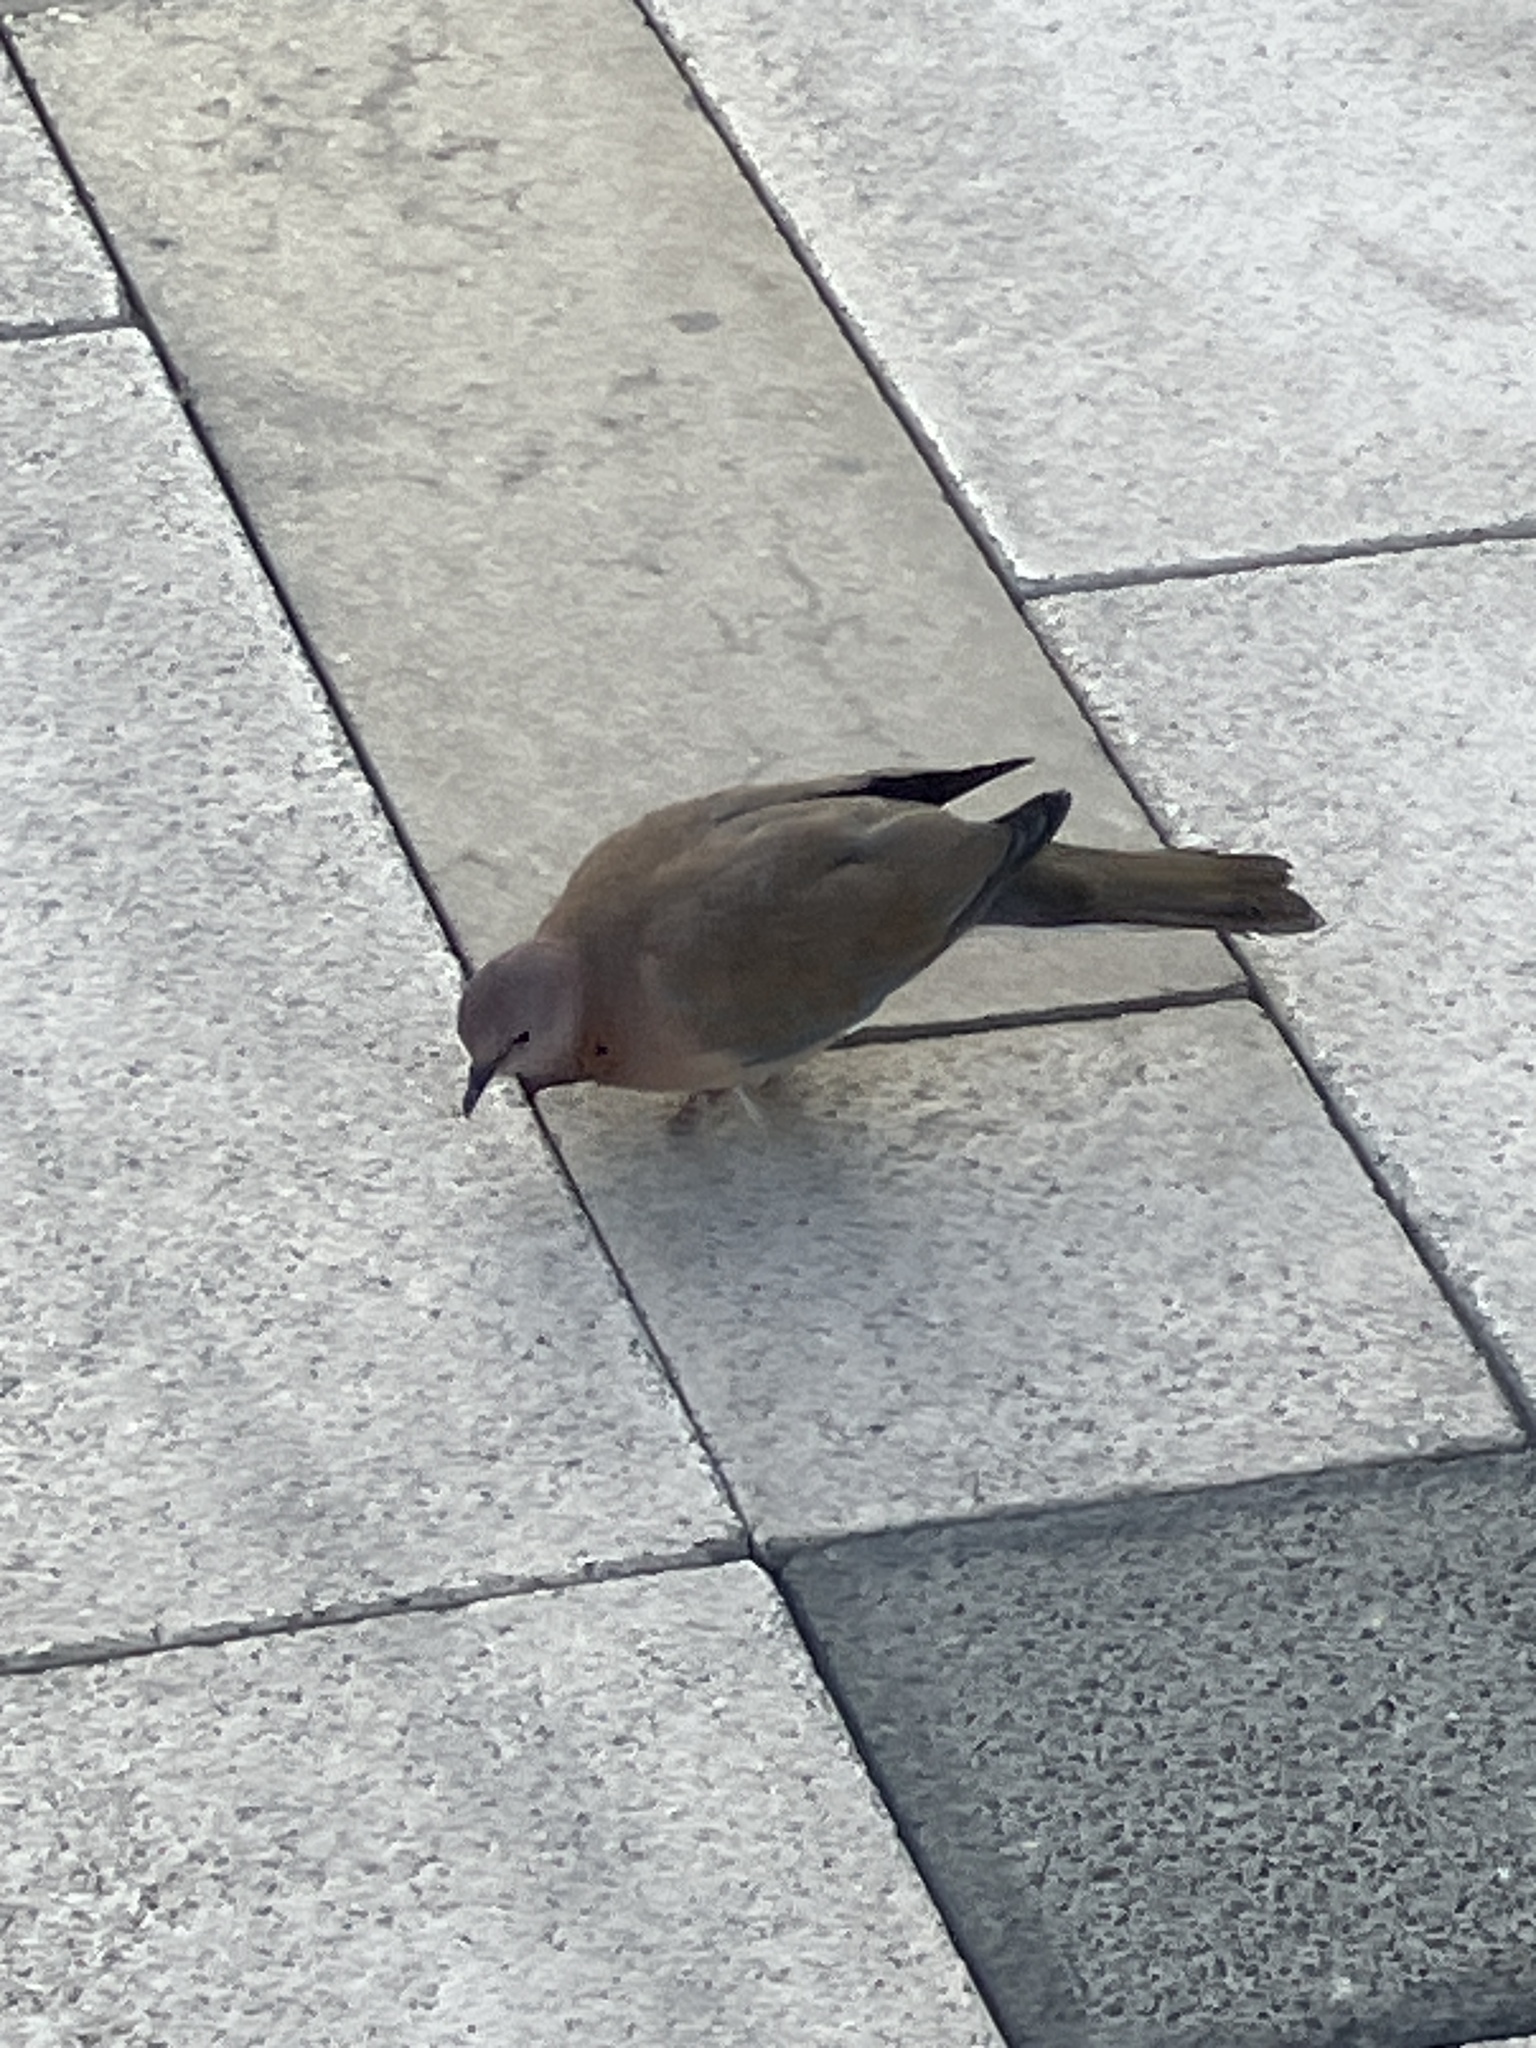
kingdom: Animalia
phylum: Chordata
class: Aves
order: Columbiformes
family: Columbidae
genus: Spilopelia
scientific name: Spilopelia senegalensis
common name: Laughing dove
